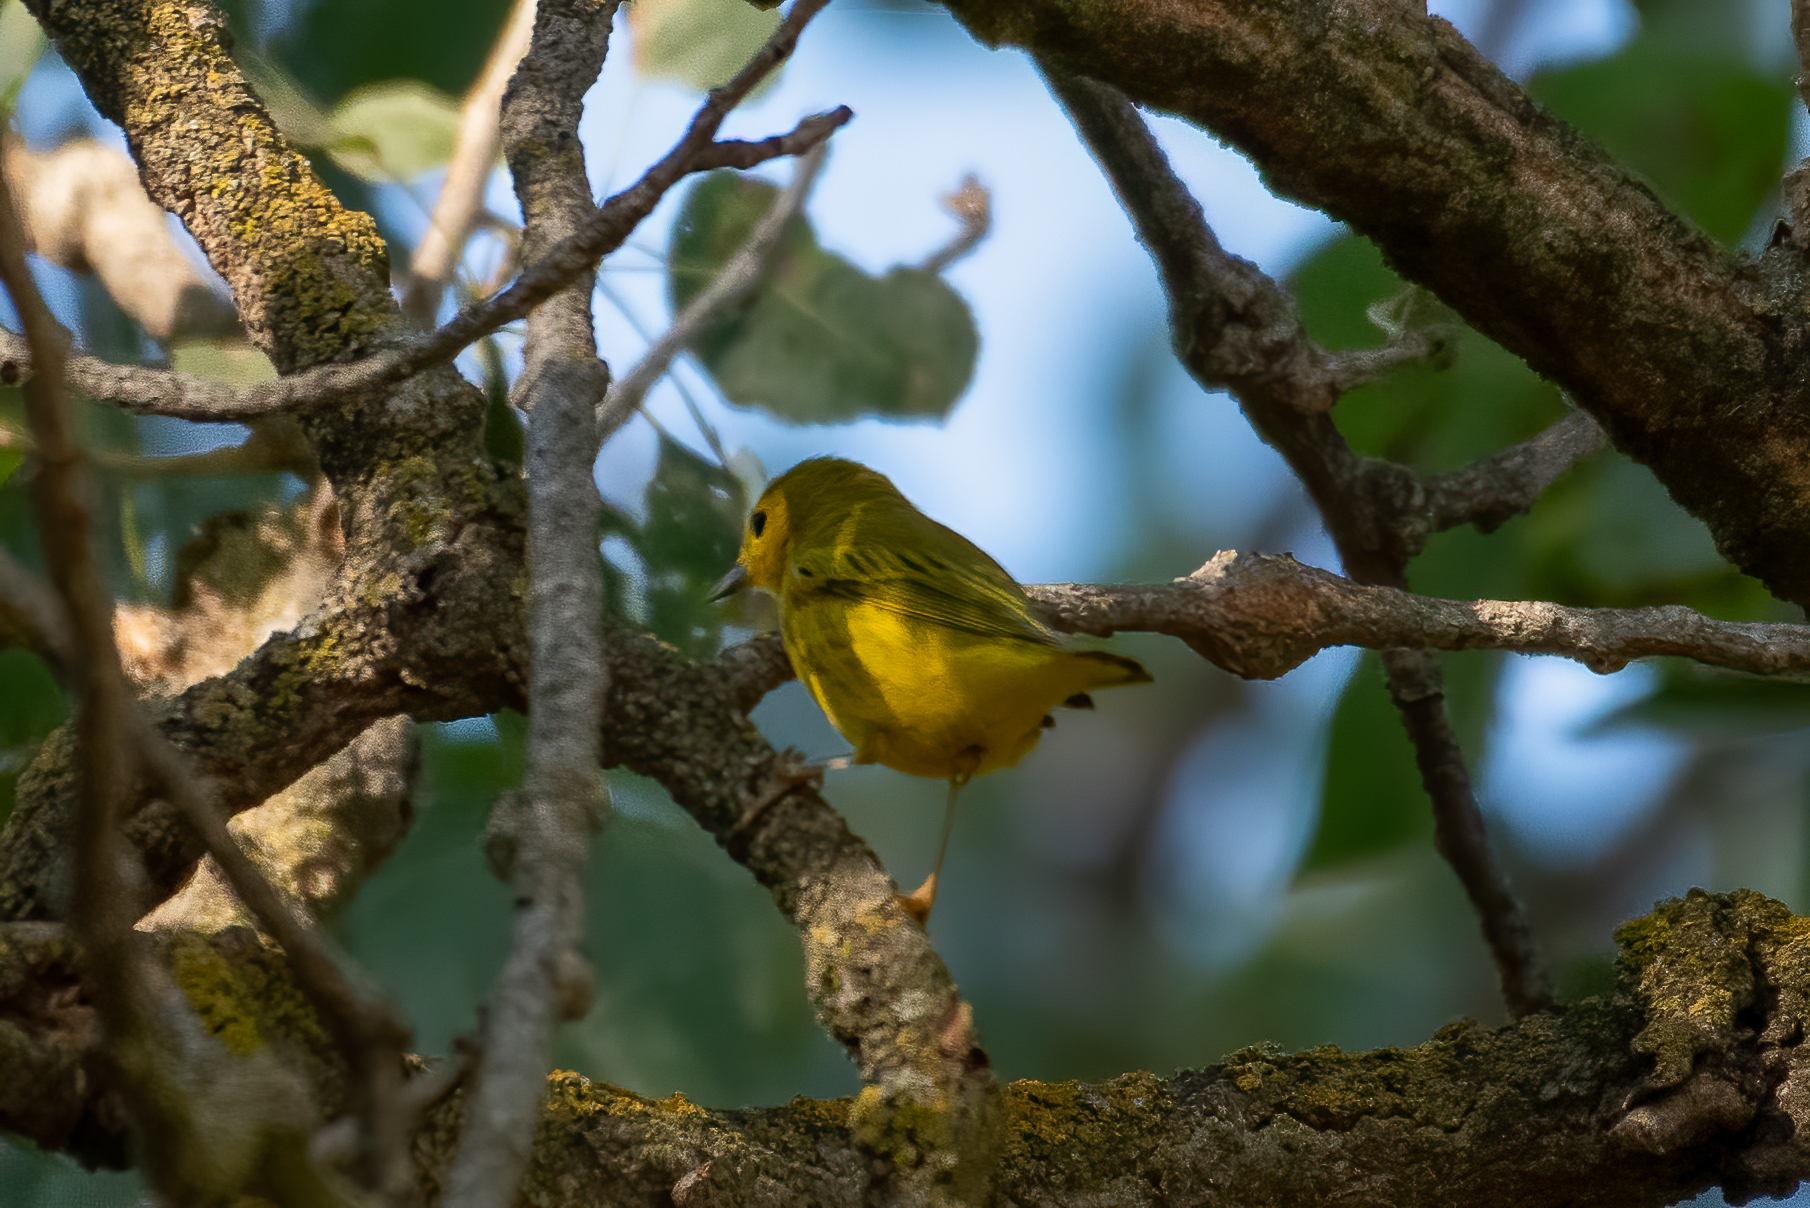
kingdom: Animalia
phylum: Chordata
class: Aves
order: Passeriformes
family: Parulidae
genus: Setophaga
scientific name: Setophaga petechia
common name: Yellow warbler
